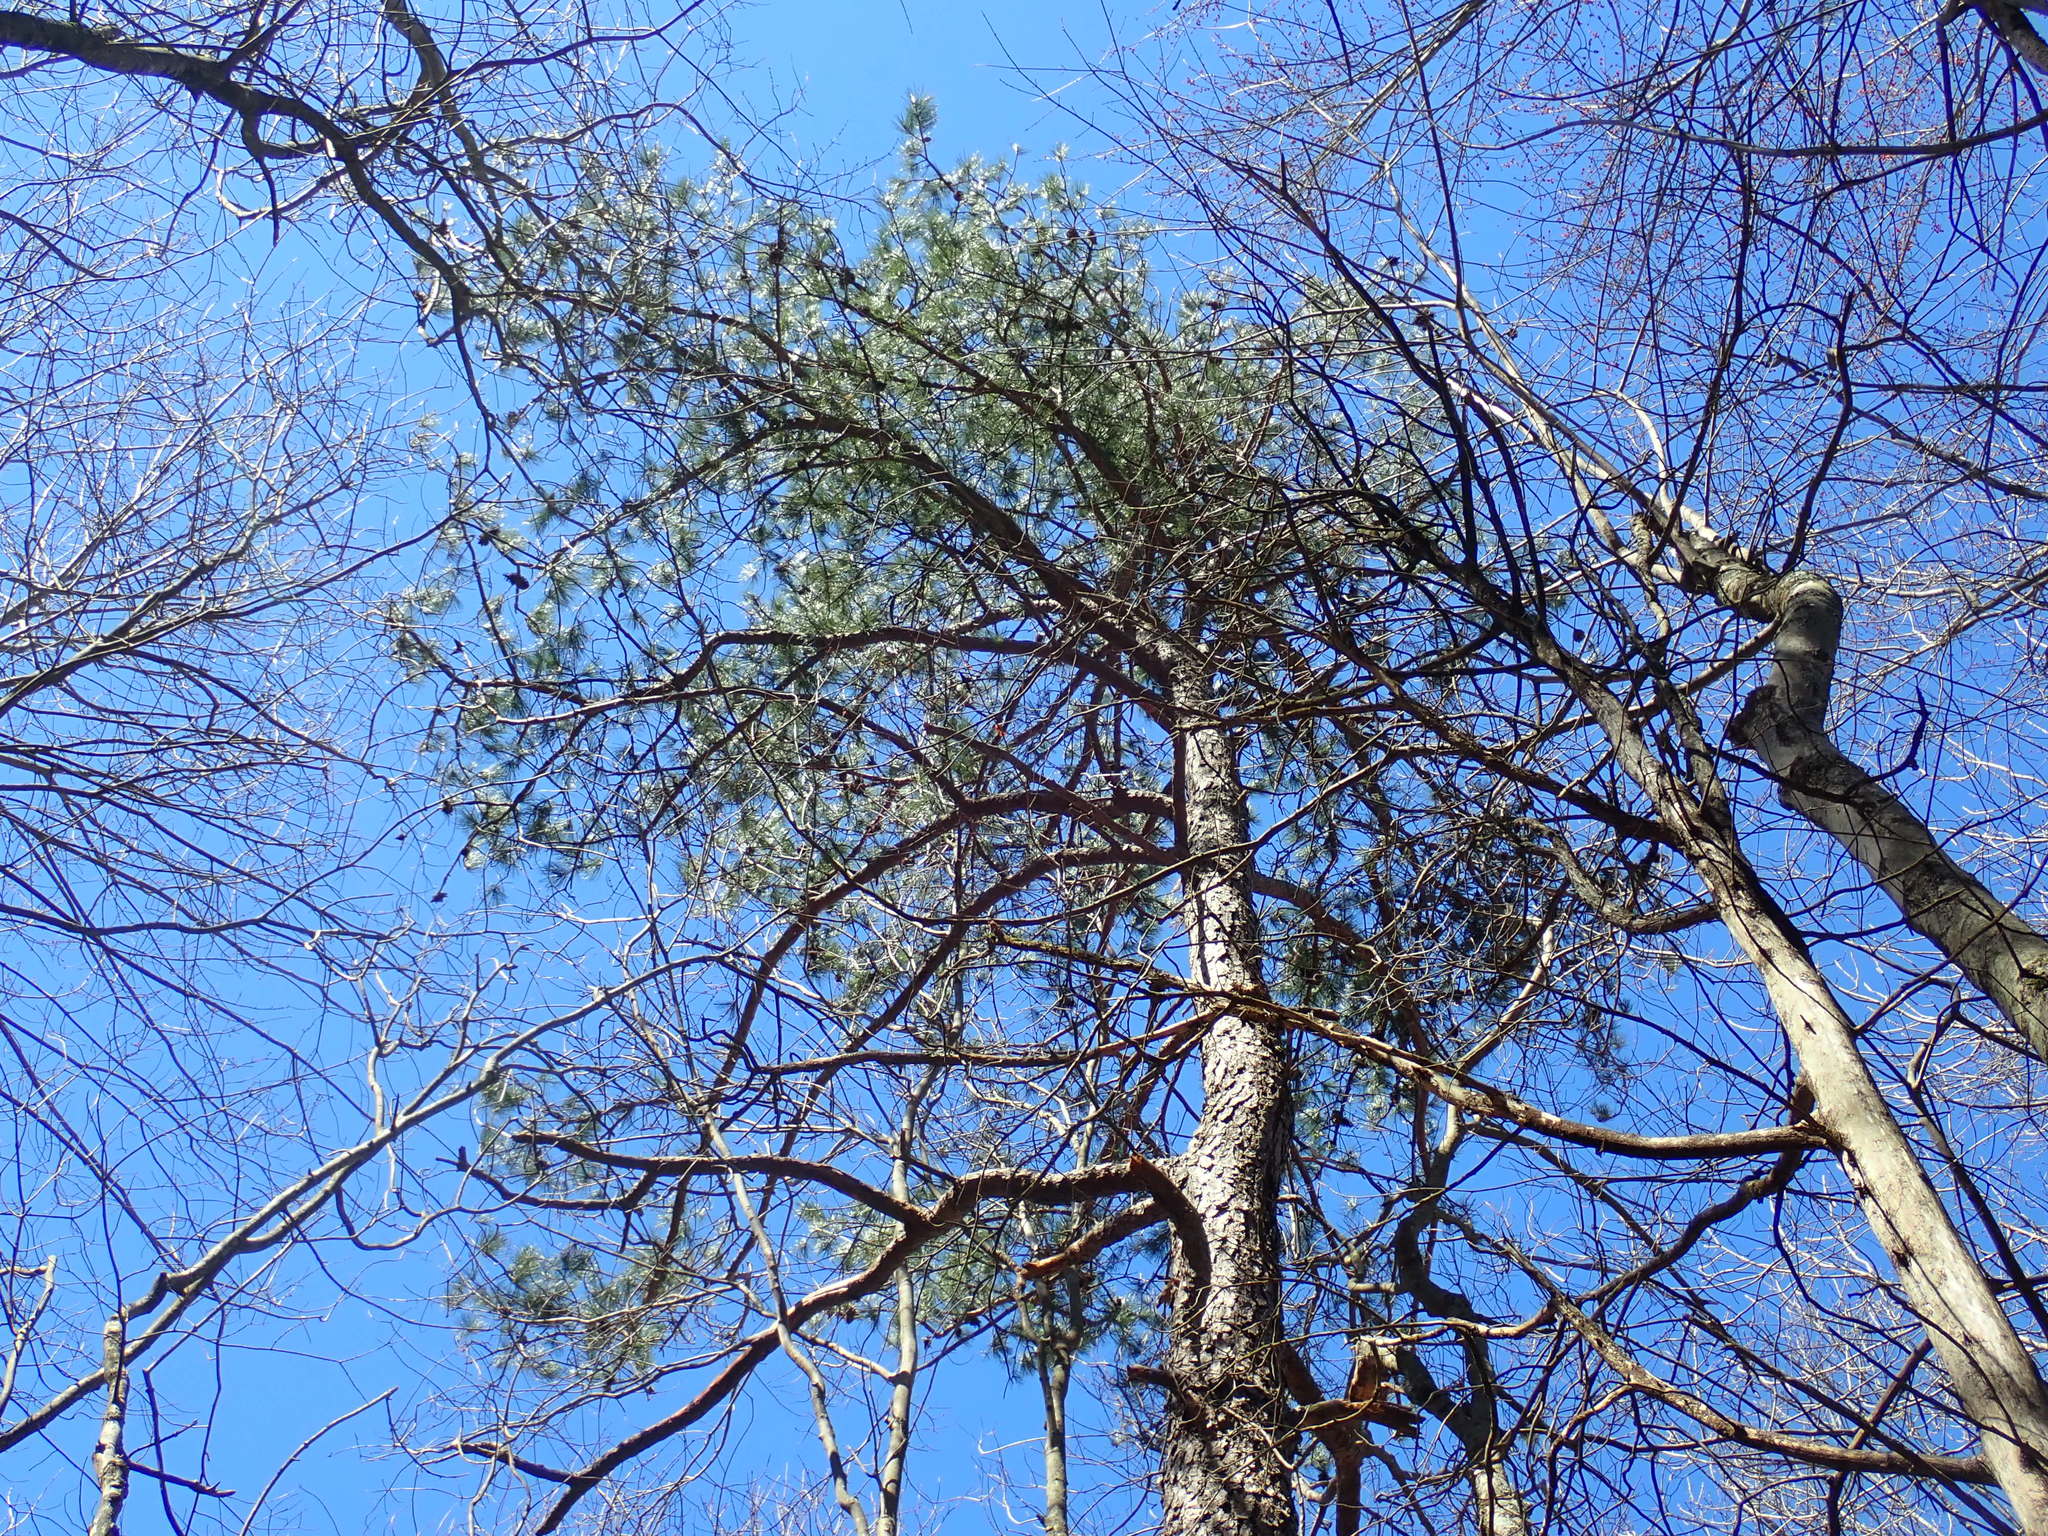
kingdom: Plantae
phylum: Tracheophyta
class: Pinopsida
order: Pinales
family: Pinaceae
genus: Pinus
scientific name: Pinus rigida
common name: Pitch pine
